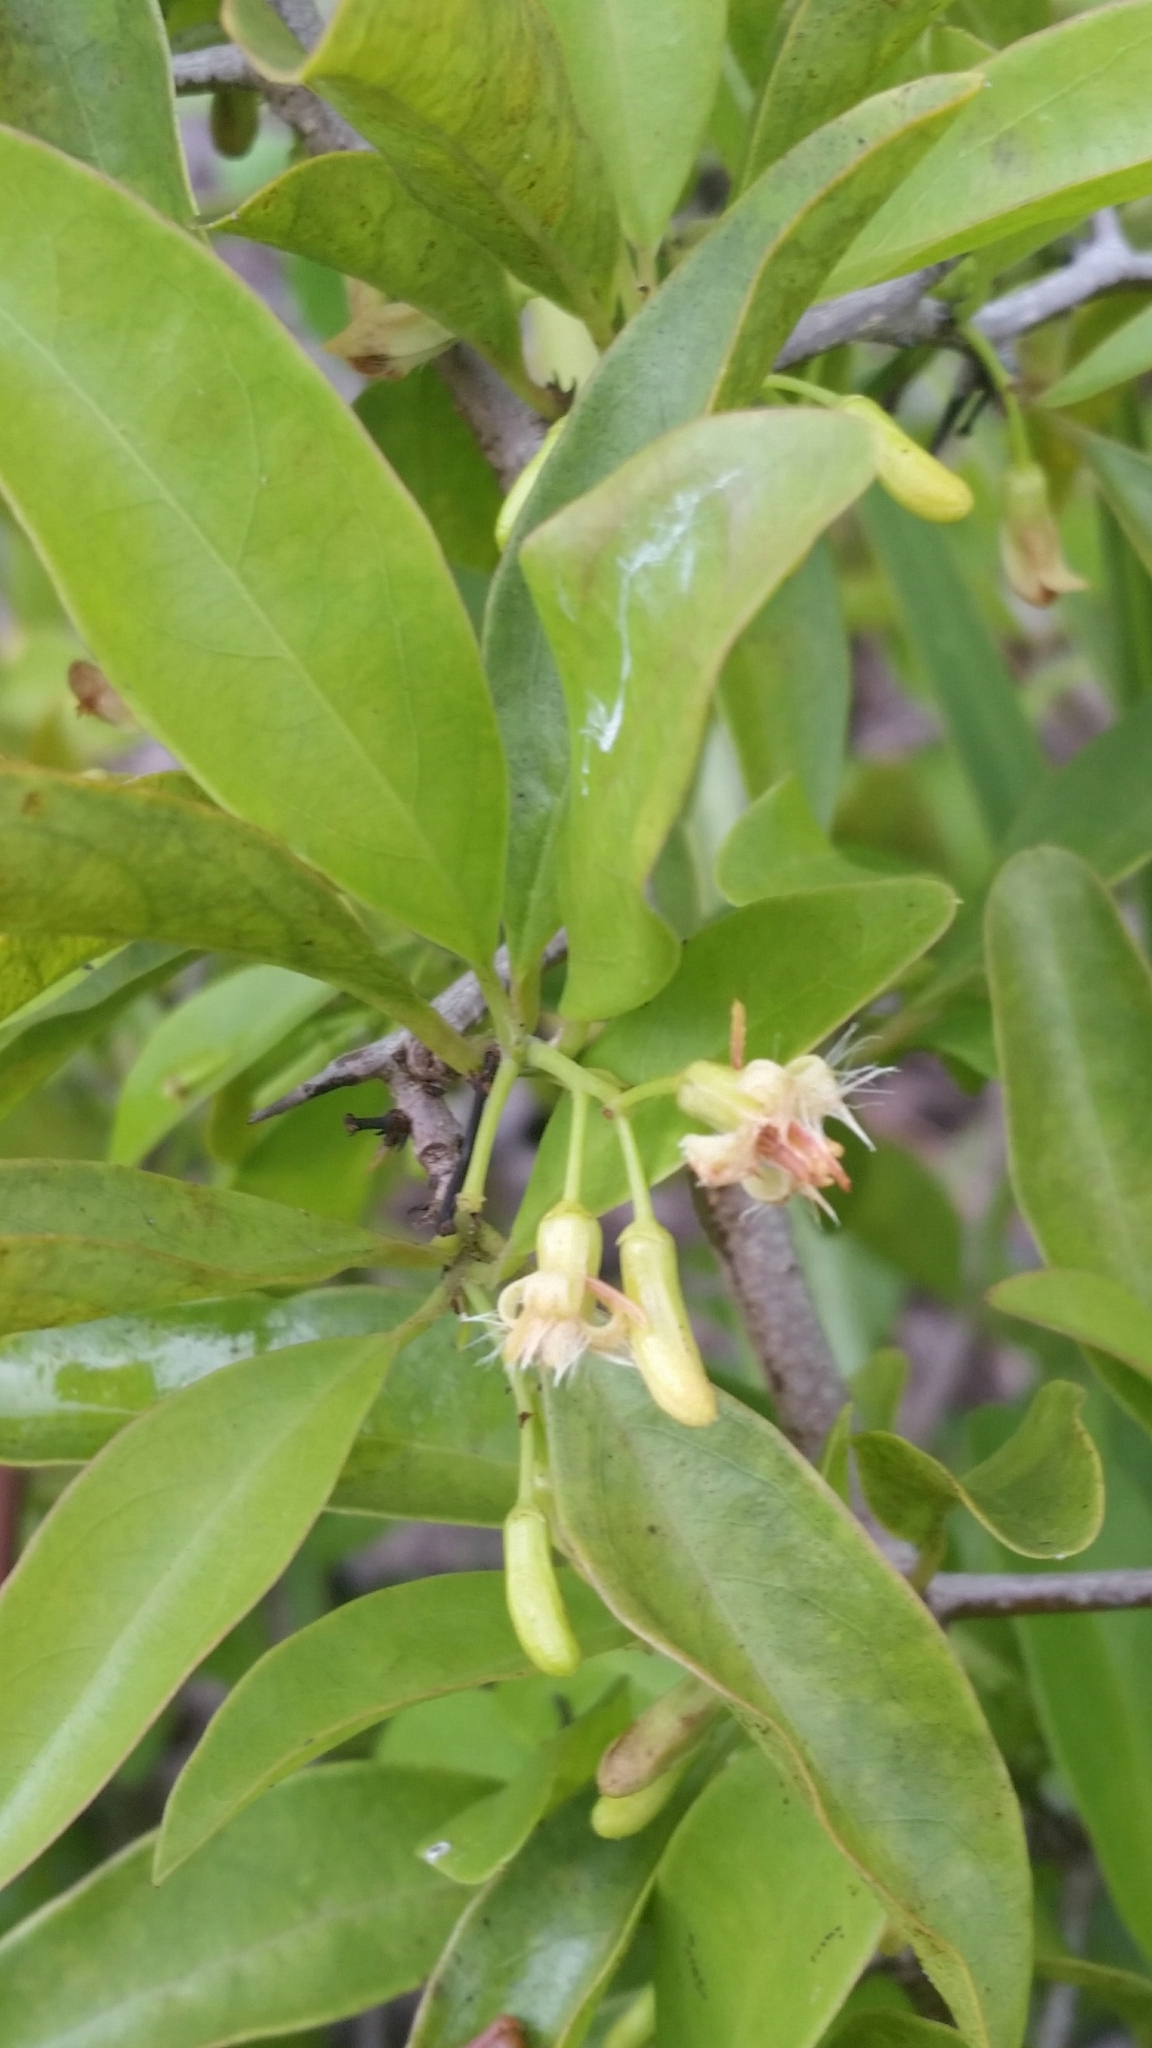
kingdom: Plantae
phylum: Tracheophyta
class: Magnoliopsida
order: Santalales
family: Ximeniaceae
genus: Ximenia
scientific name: Ximenia americana
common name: Tallowwood
